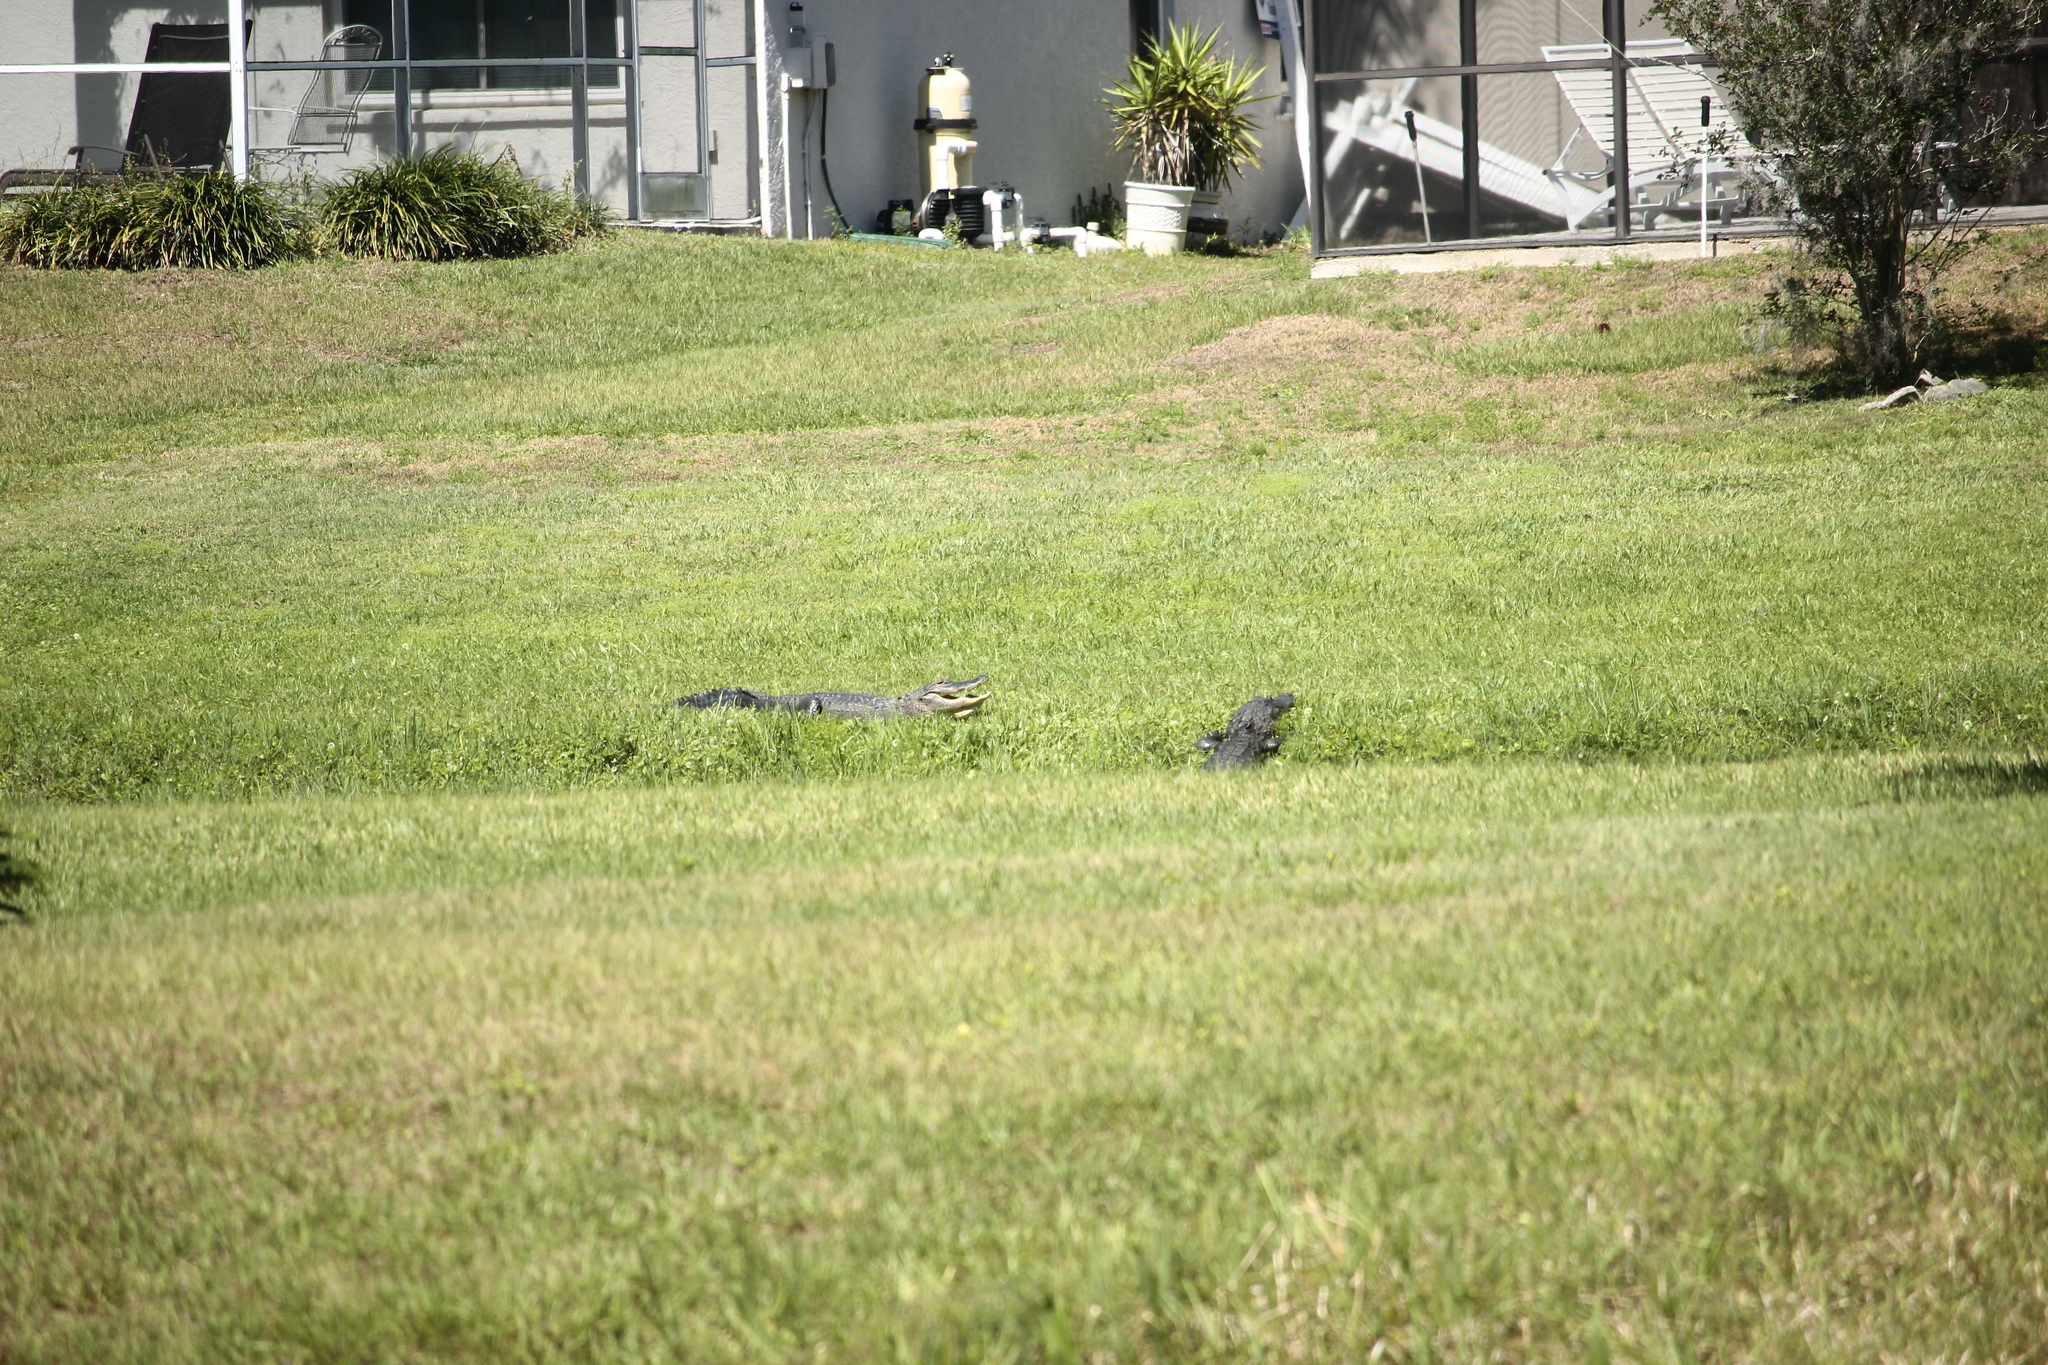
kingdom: Animalia
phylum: Chordata
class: Crocodylia
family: Alligatoridae
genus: Alligator
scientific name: Alligator mississippiensis
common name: American alligator
